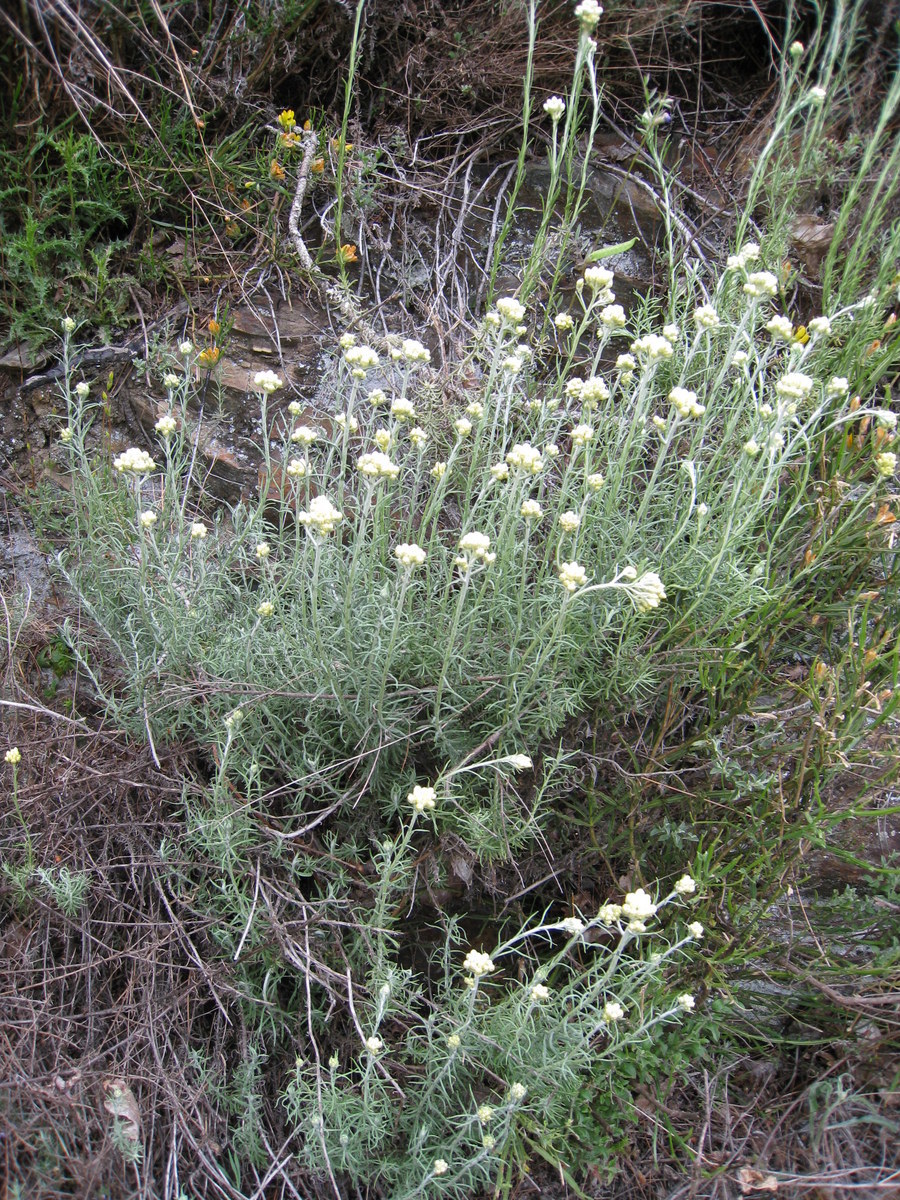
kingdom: Plantae
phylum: Tracheophyta
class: Magnoliopsida
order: Asterales
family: Asteraceae
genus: Helichrysum
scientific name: Helichrysum stoechas
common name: Goldilocks
